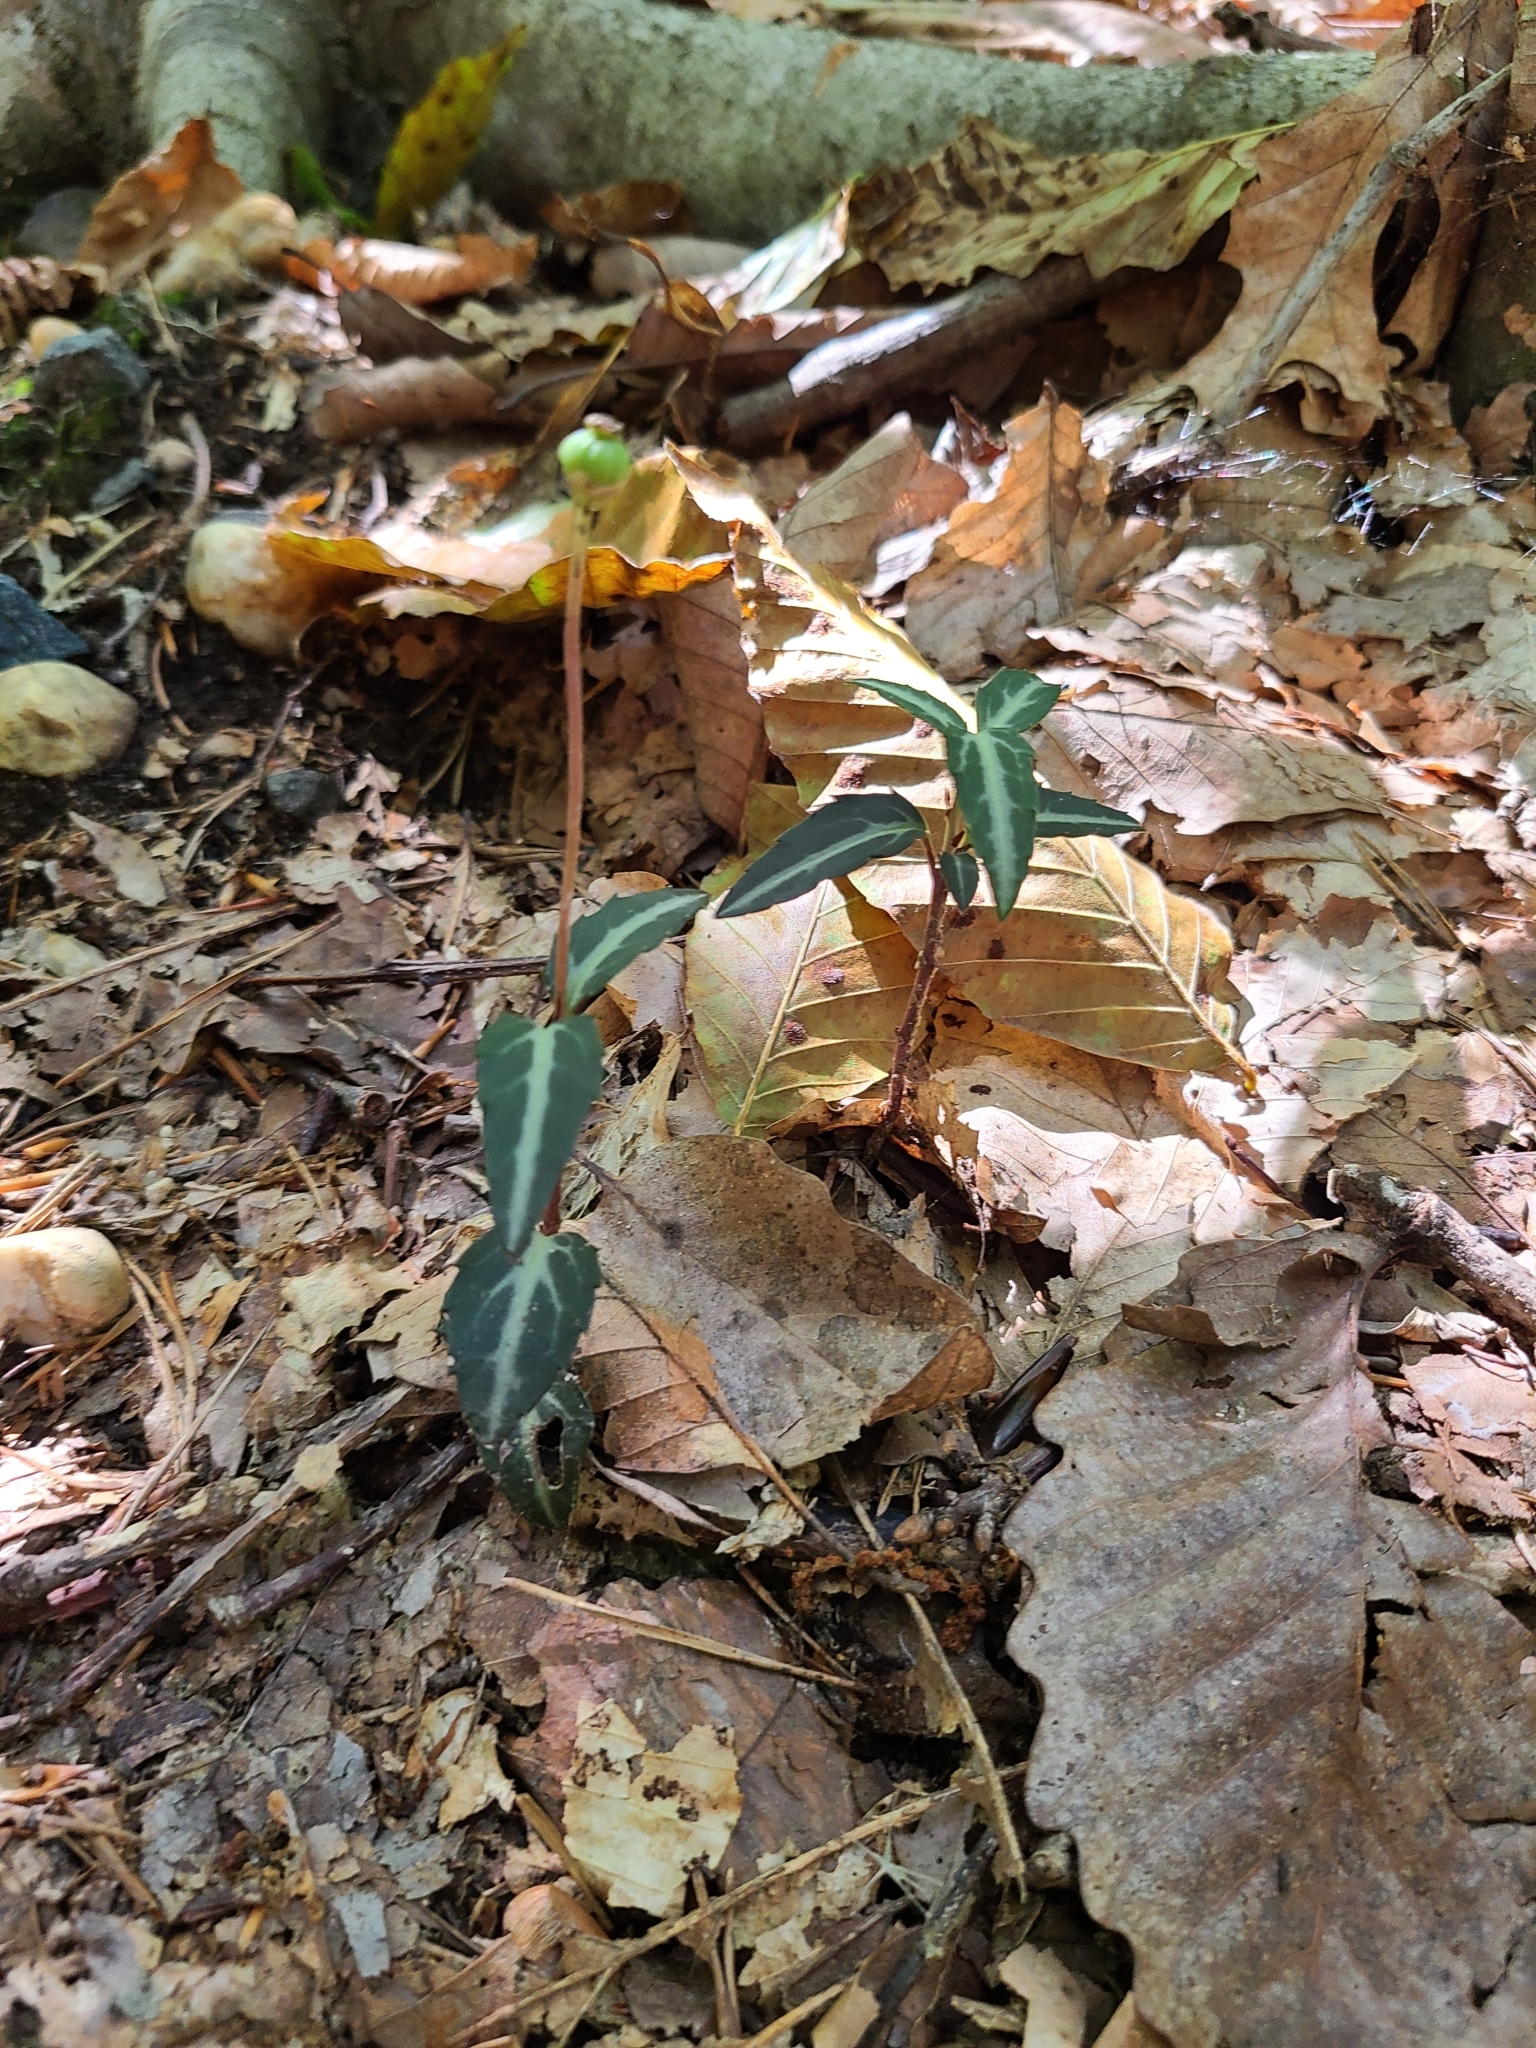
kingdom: Plantae
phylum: Tracheophyta
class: Magnoliopsida
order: Ericales
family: Ericaceae
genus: Chimaphila
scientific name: Chimaphila maculata
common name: Spotted pipsissewa
